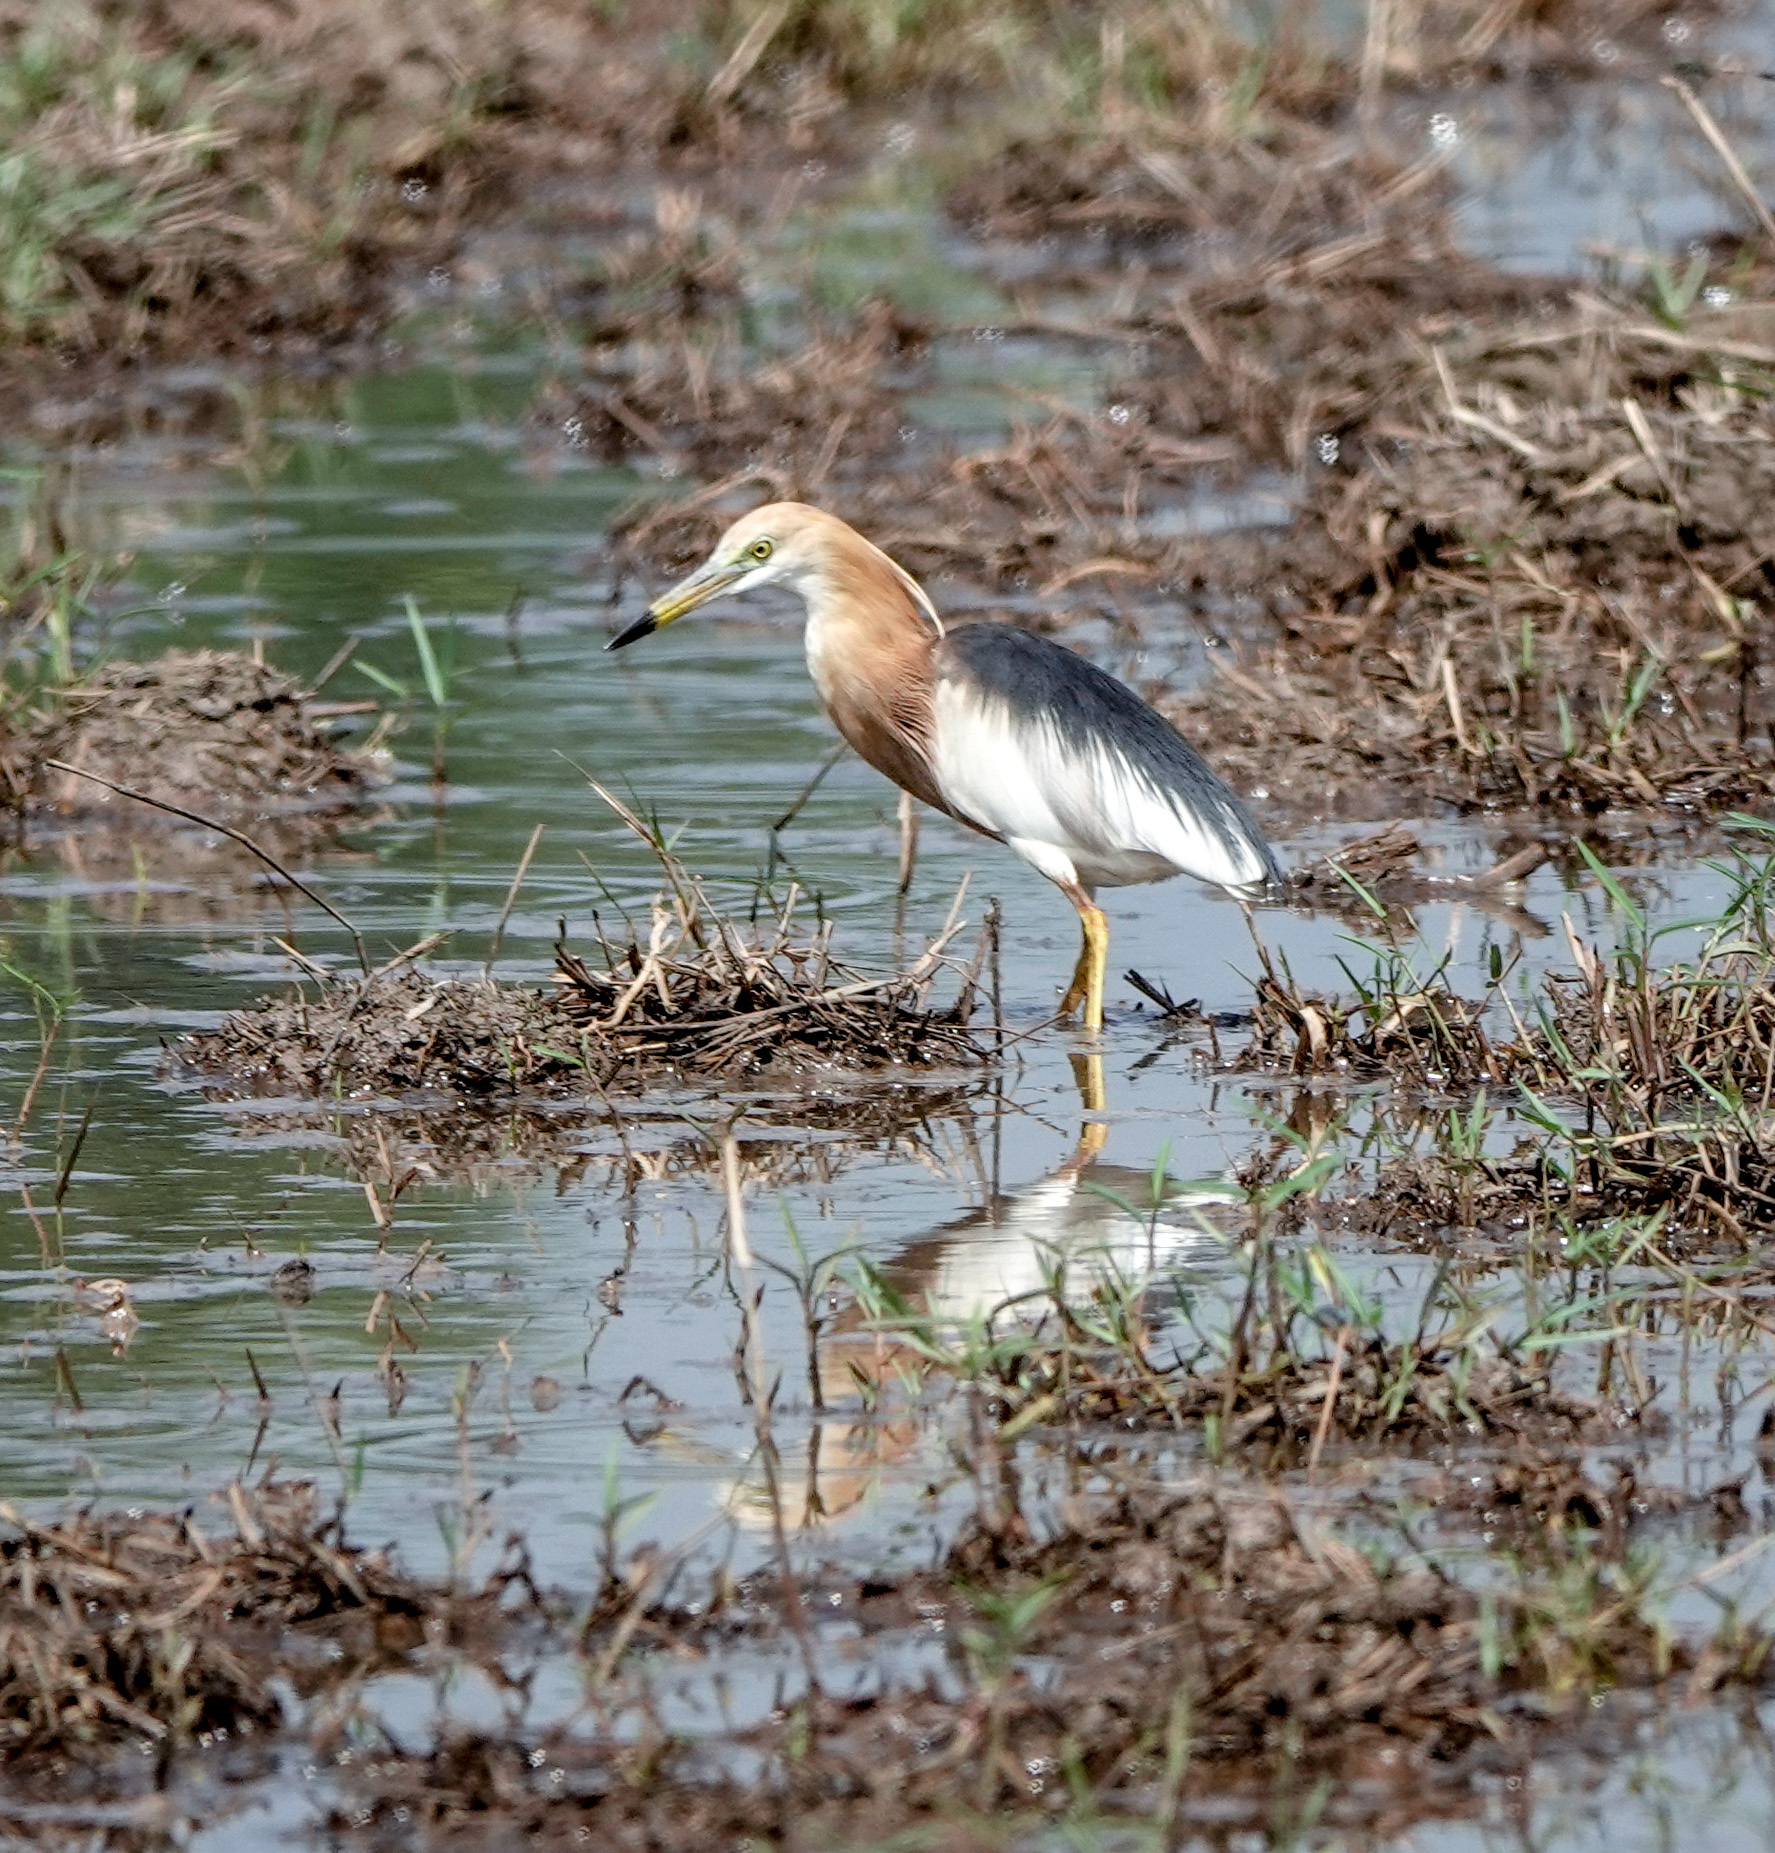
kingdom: Animalia
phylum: Chordata
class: Aves
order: Pelecaniformes
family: Ardeidae
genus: Ardeola
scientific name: Ardeola speciosa
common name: Javan pond heron
